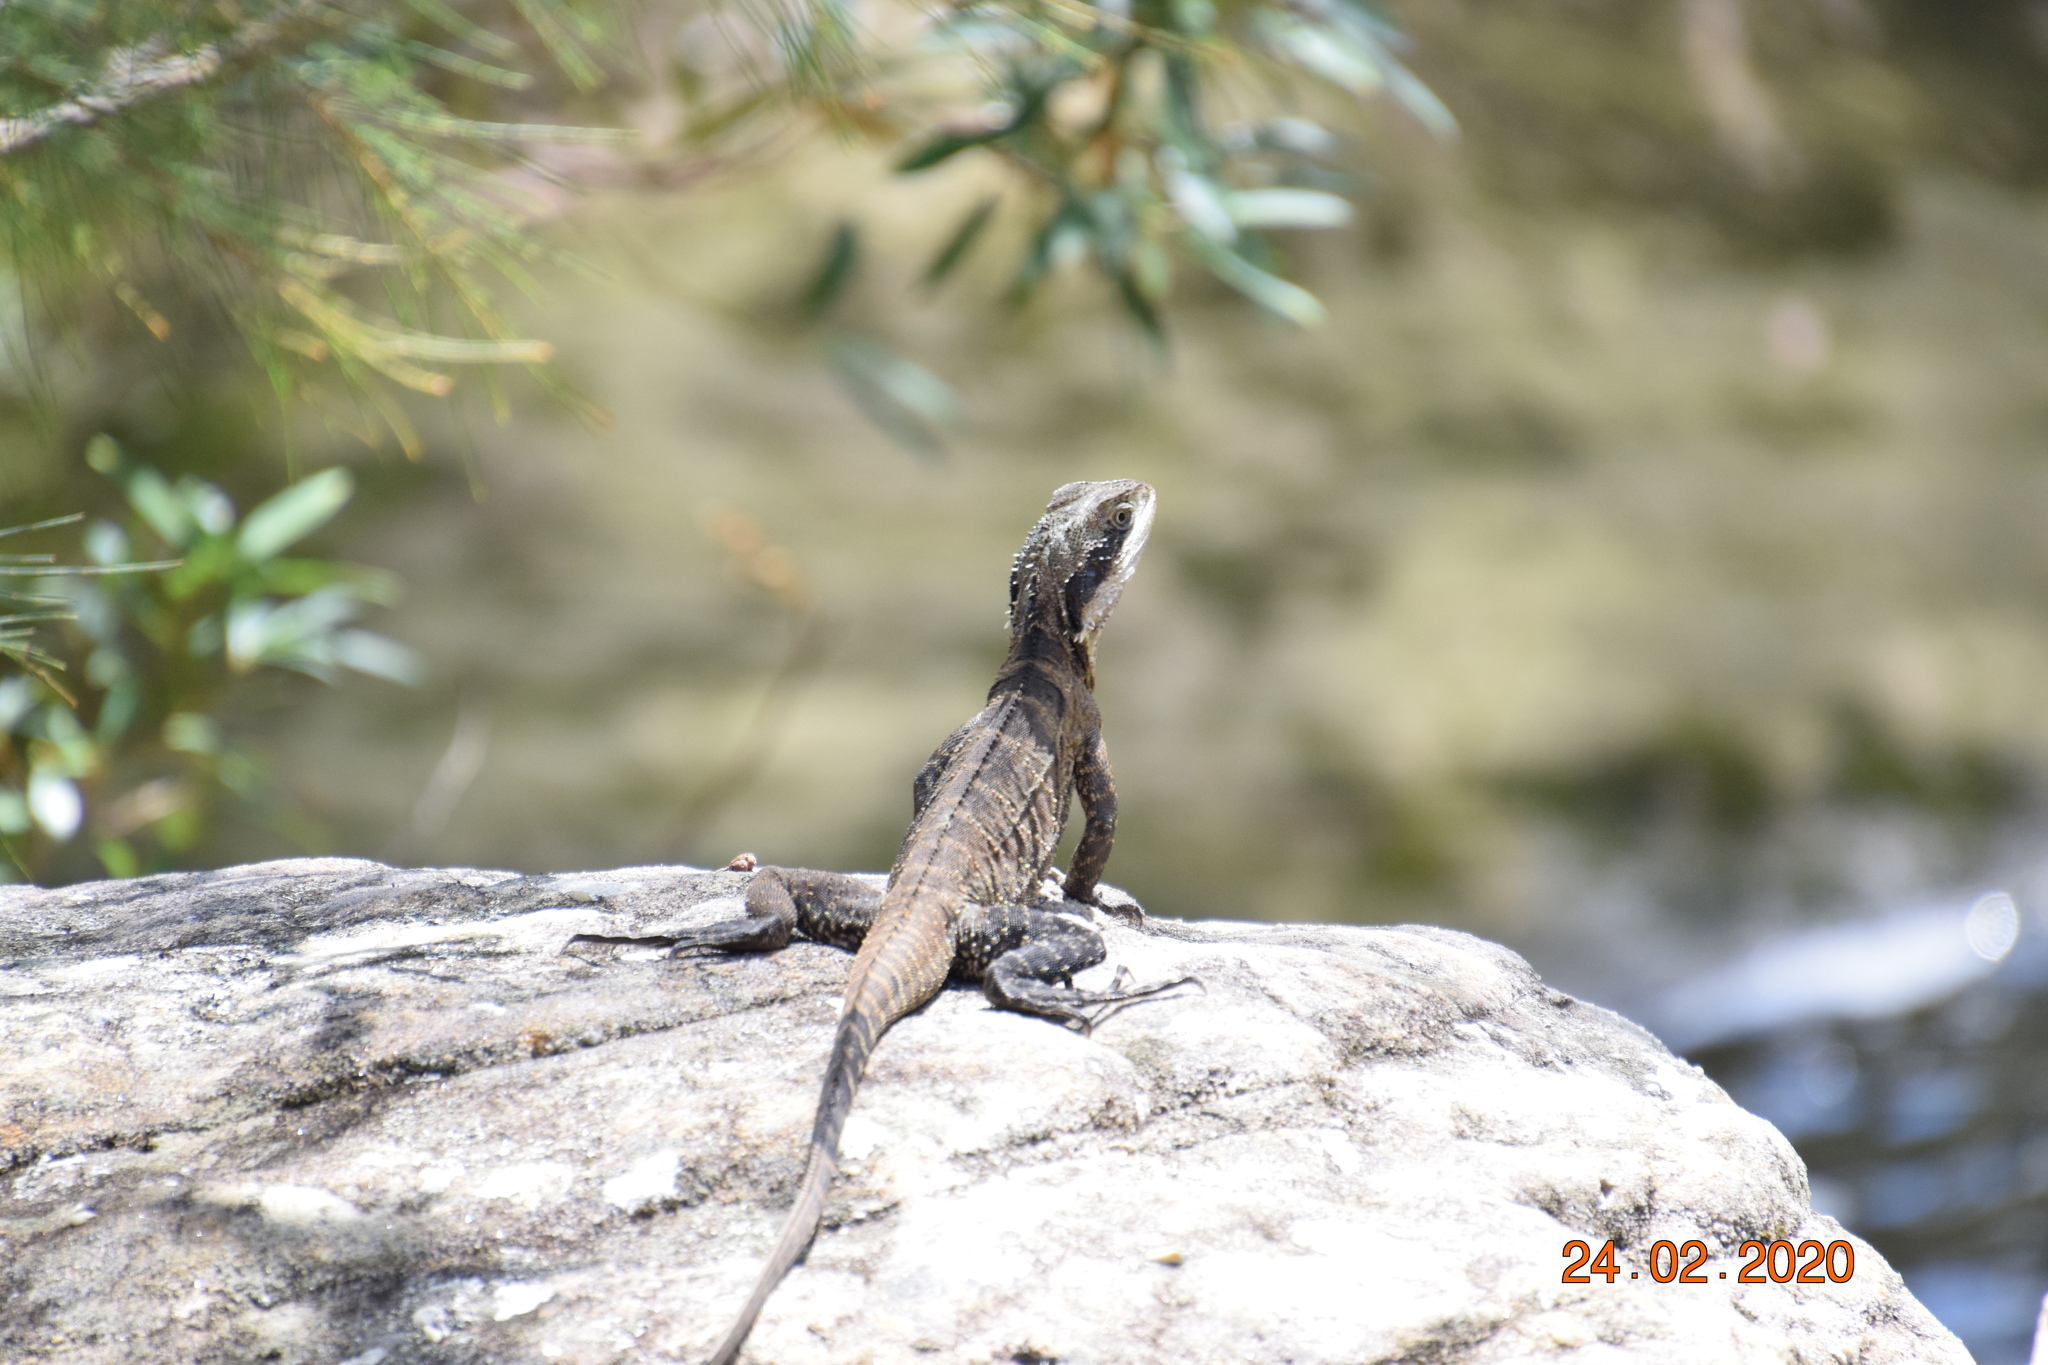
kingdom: Animalia
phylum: Chordata
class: Squamata
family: Agamidae
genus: Intellagama
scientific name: Intellagama lesueurii
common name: Eastern water dragon
